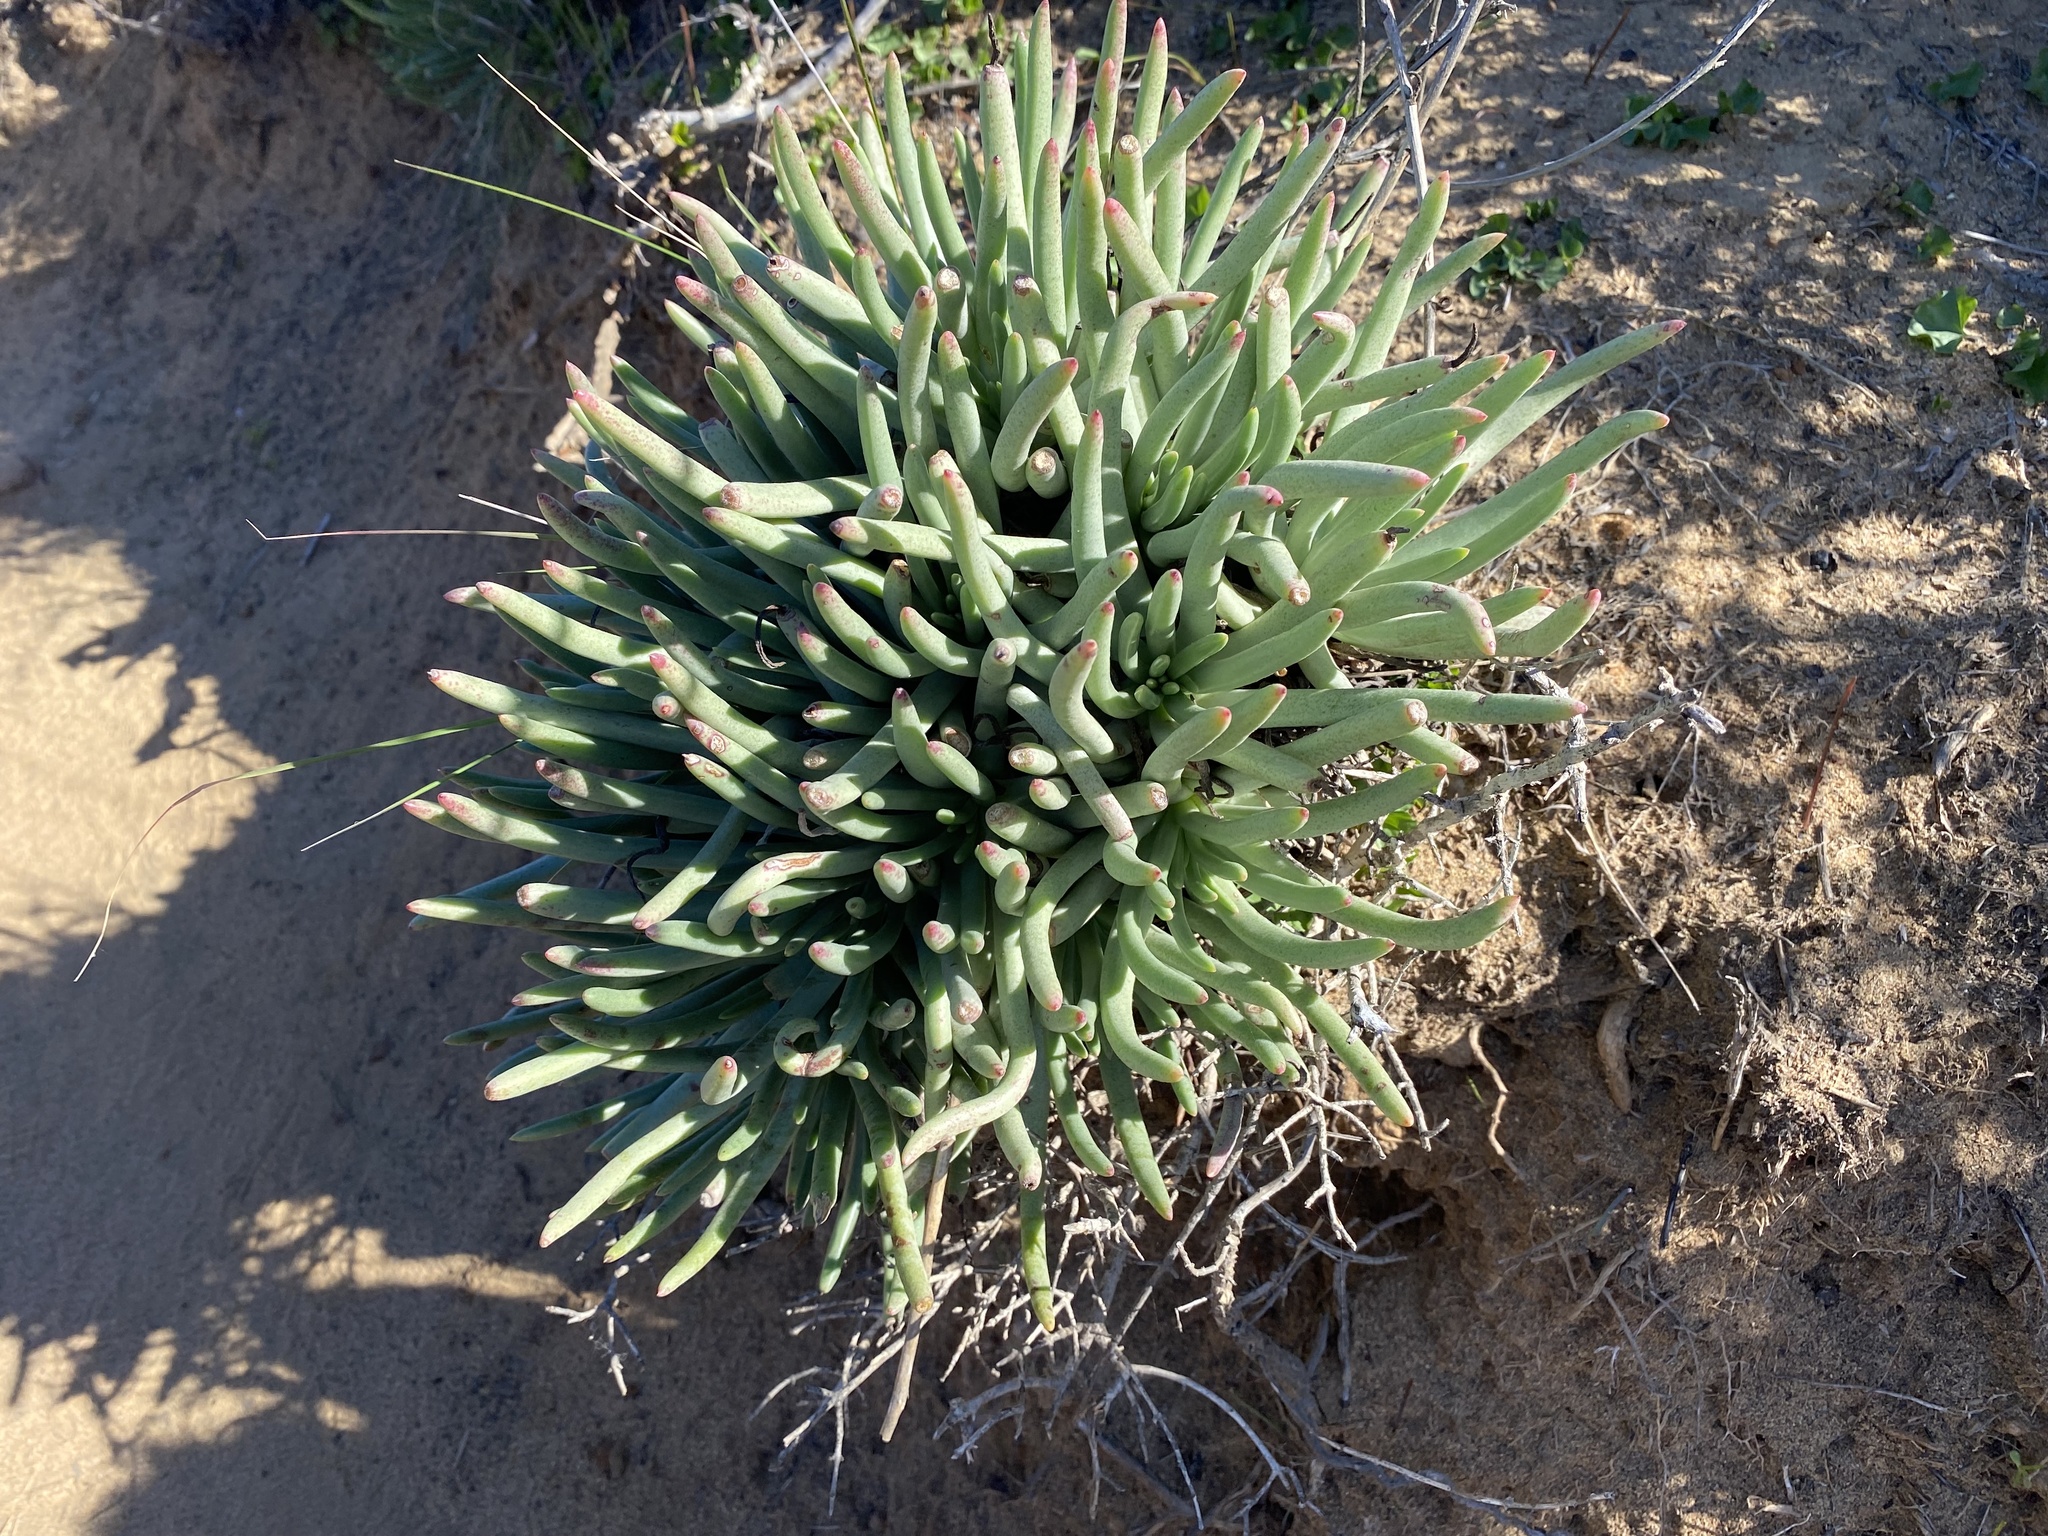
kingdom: Plantae
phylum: Tracheophyta
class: Magnoliopsida
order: Saxifragales
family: Crassulaceae
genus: Dudleya
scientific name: Dudleya edulis
